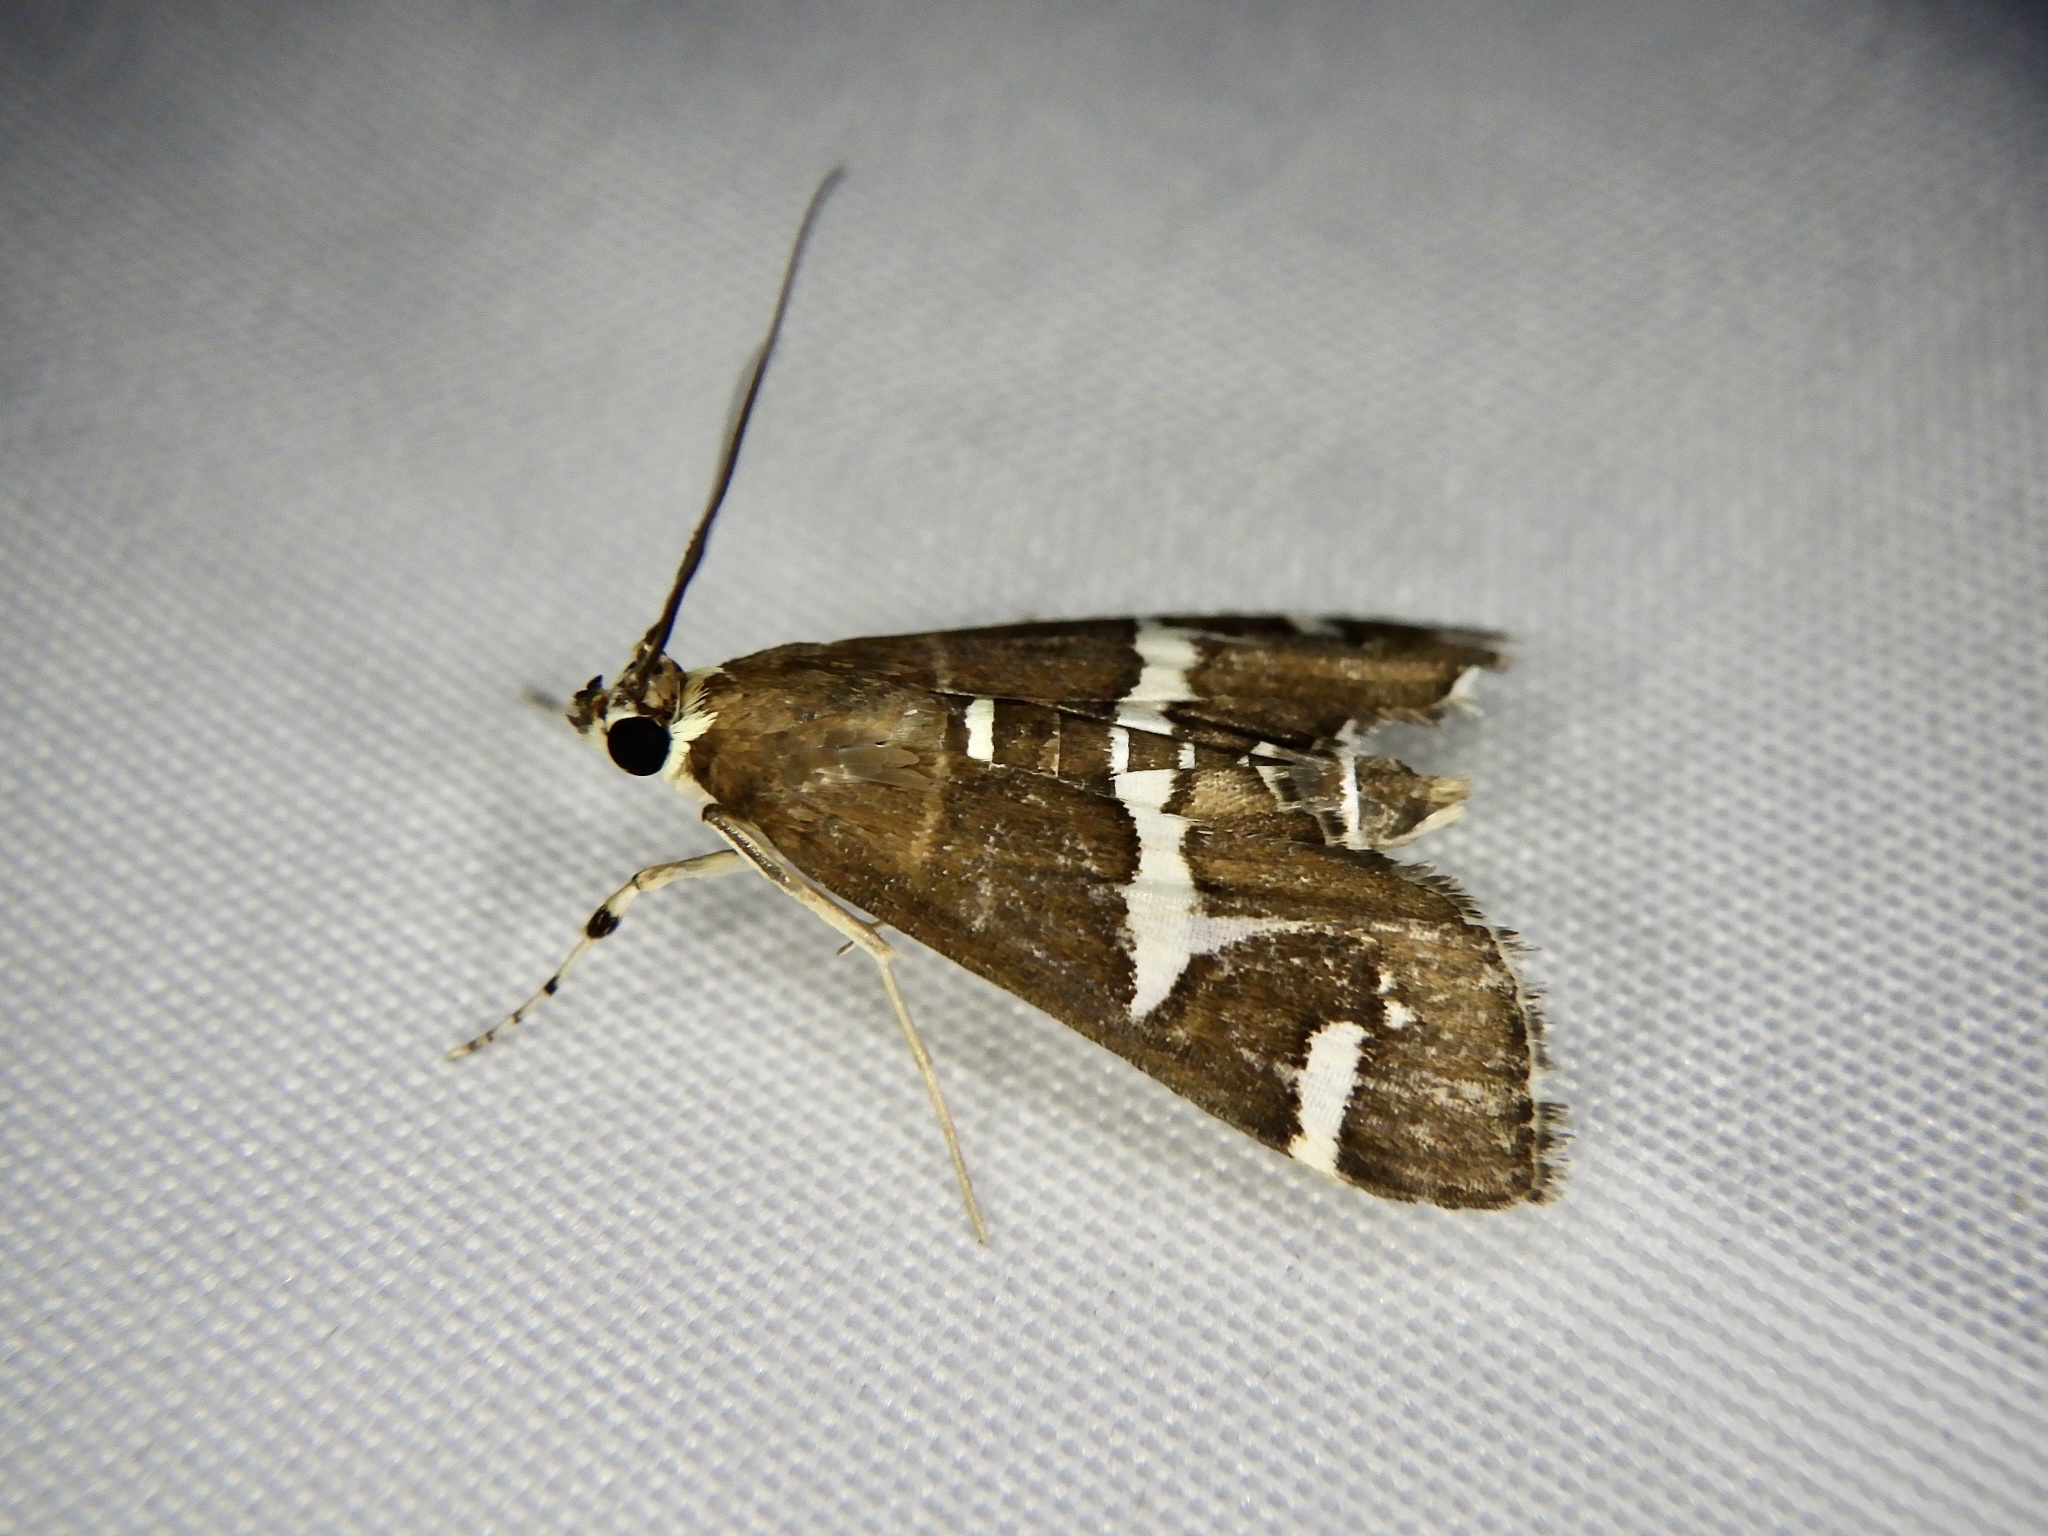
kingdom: Animalia
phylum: Arthropoda
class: Insecta
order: Lepidoptera
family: Crambidae
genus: Spoladea
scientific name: Spoladea recurvalis
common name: Beet webworm moth
